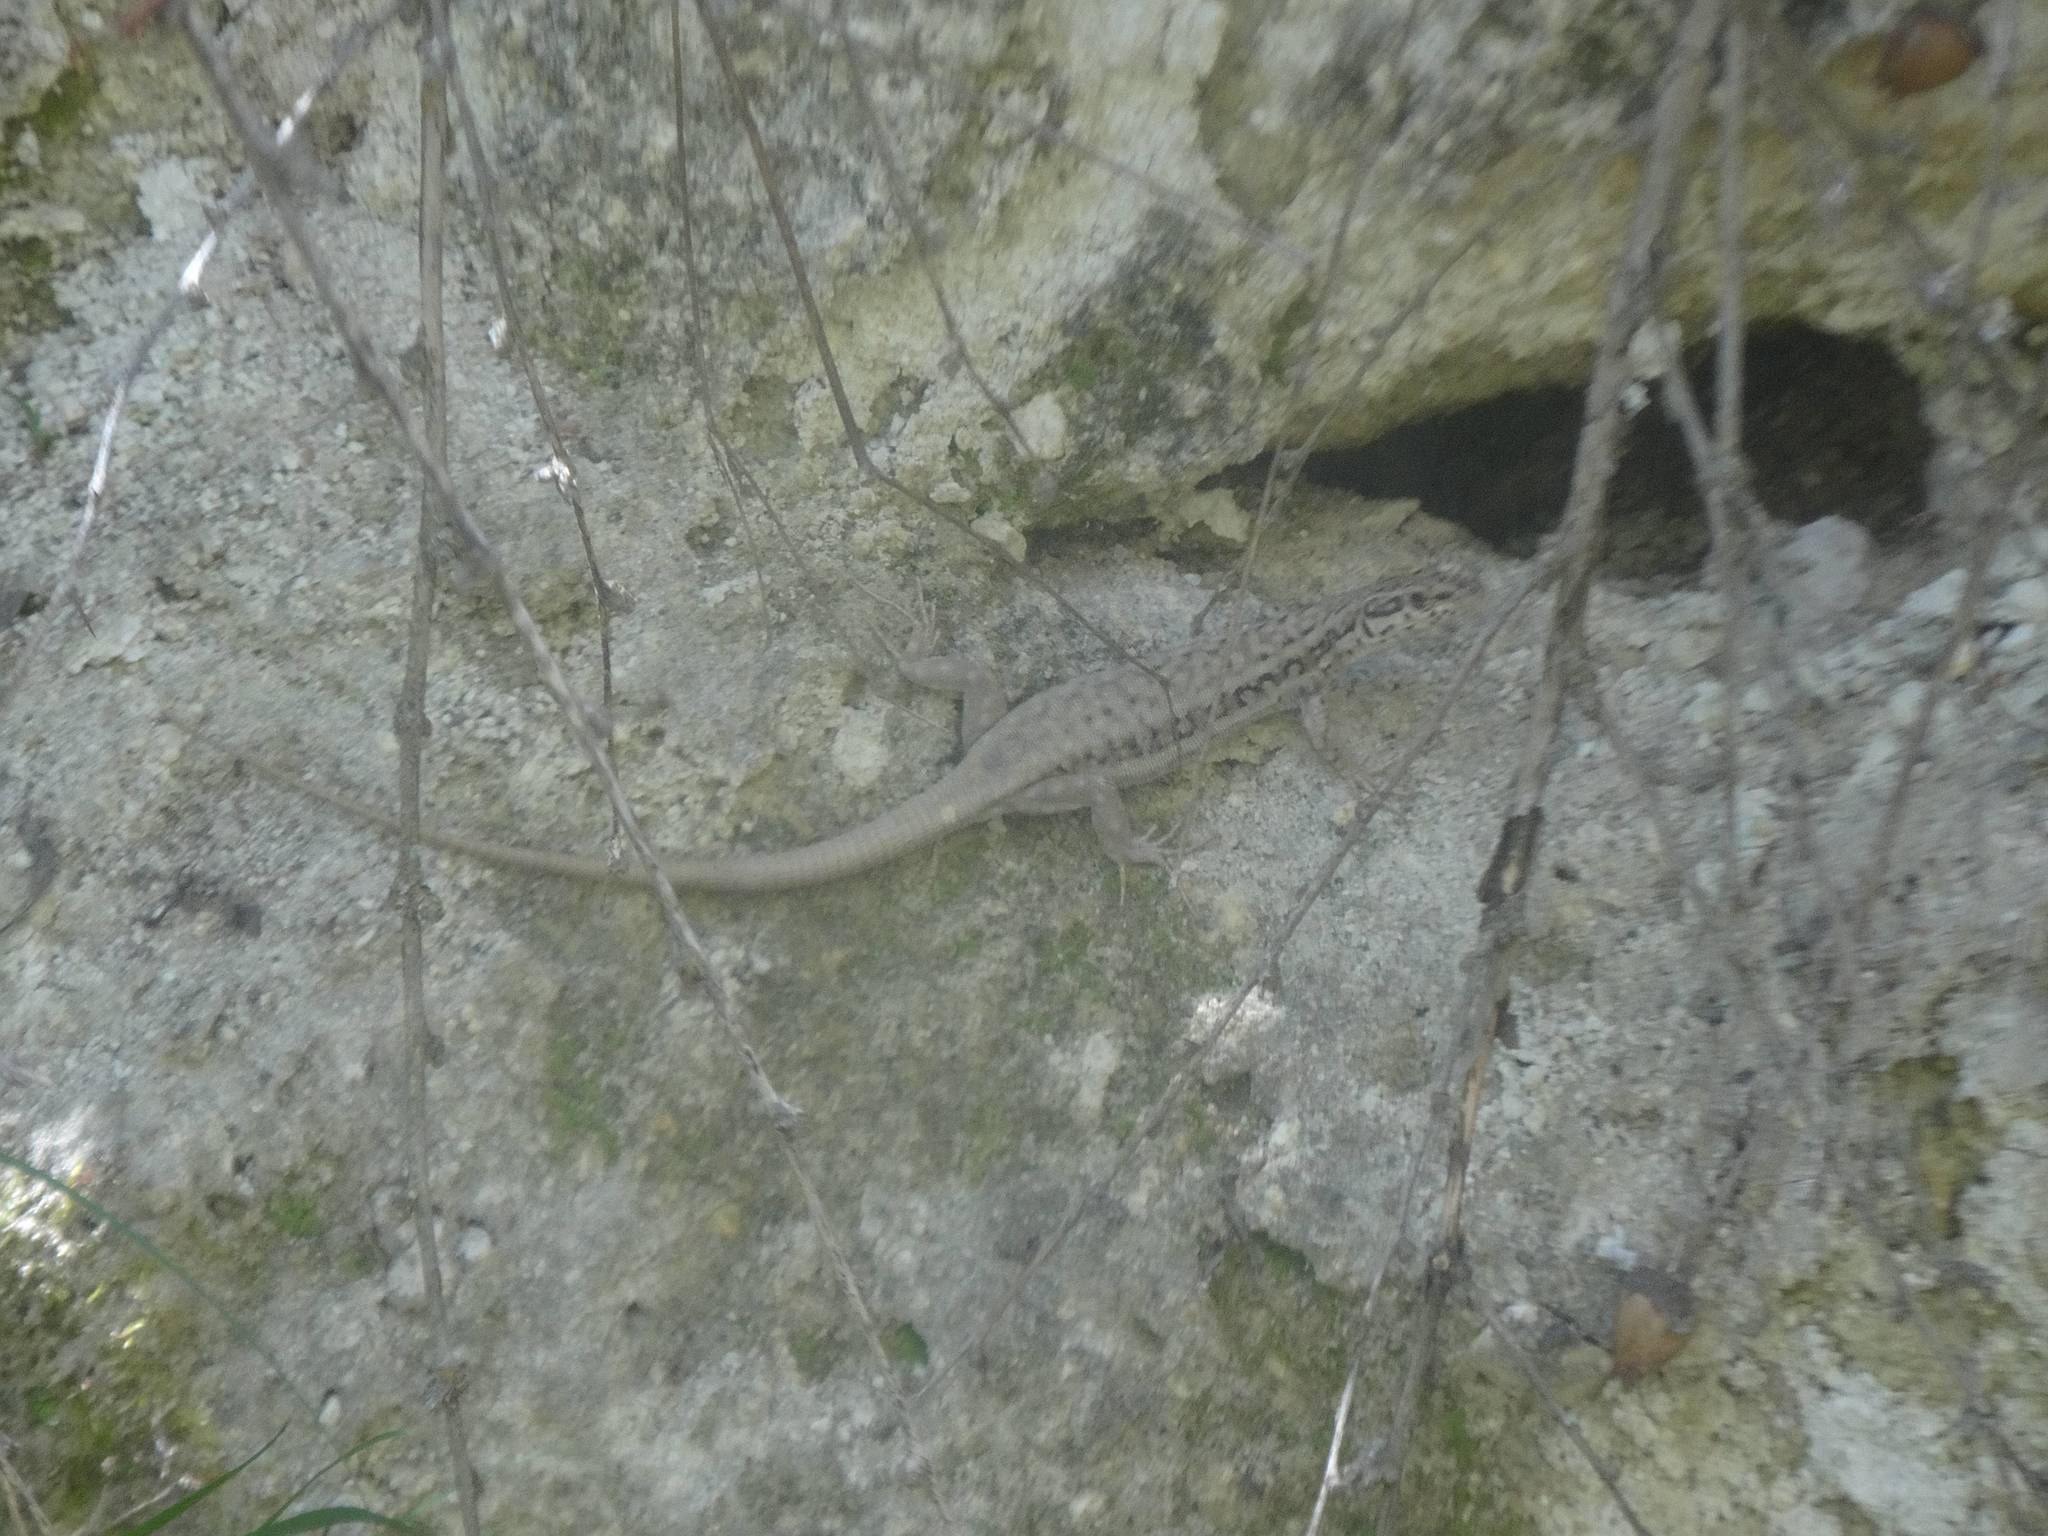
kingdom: Animalia
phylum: Chordata
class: Squamata
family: Lacertidae
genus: Apathya
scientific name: Apathya cappadocica
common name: Anatolian lizard
